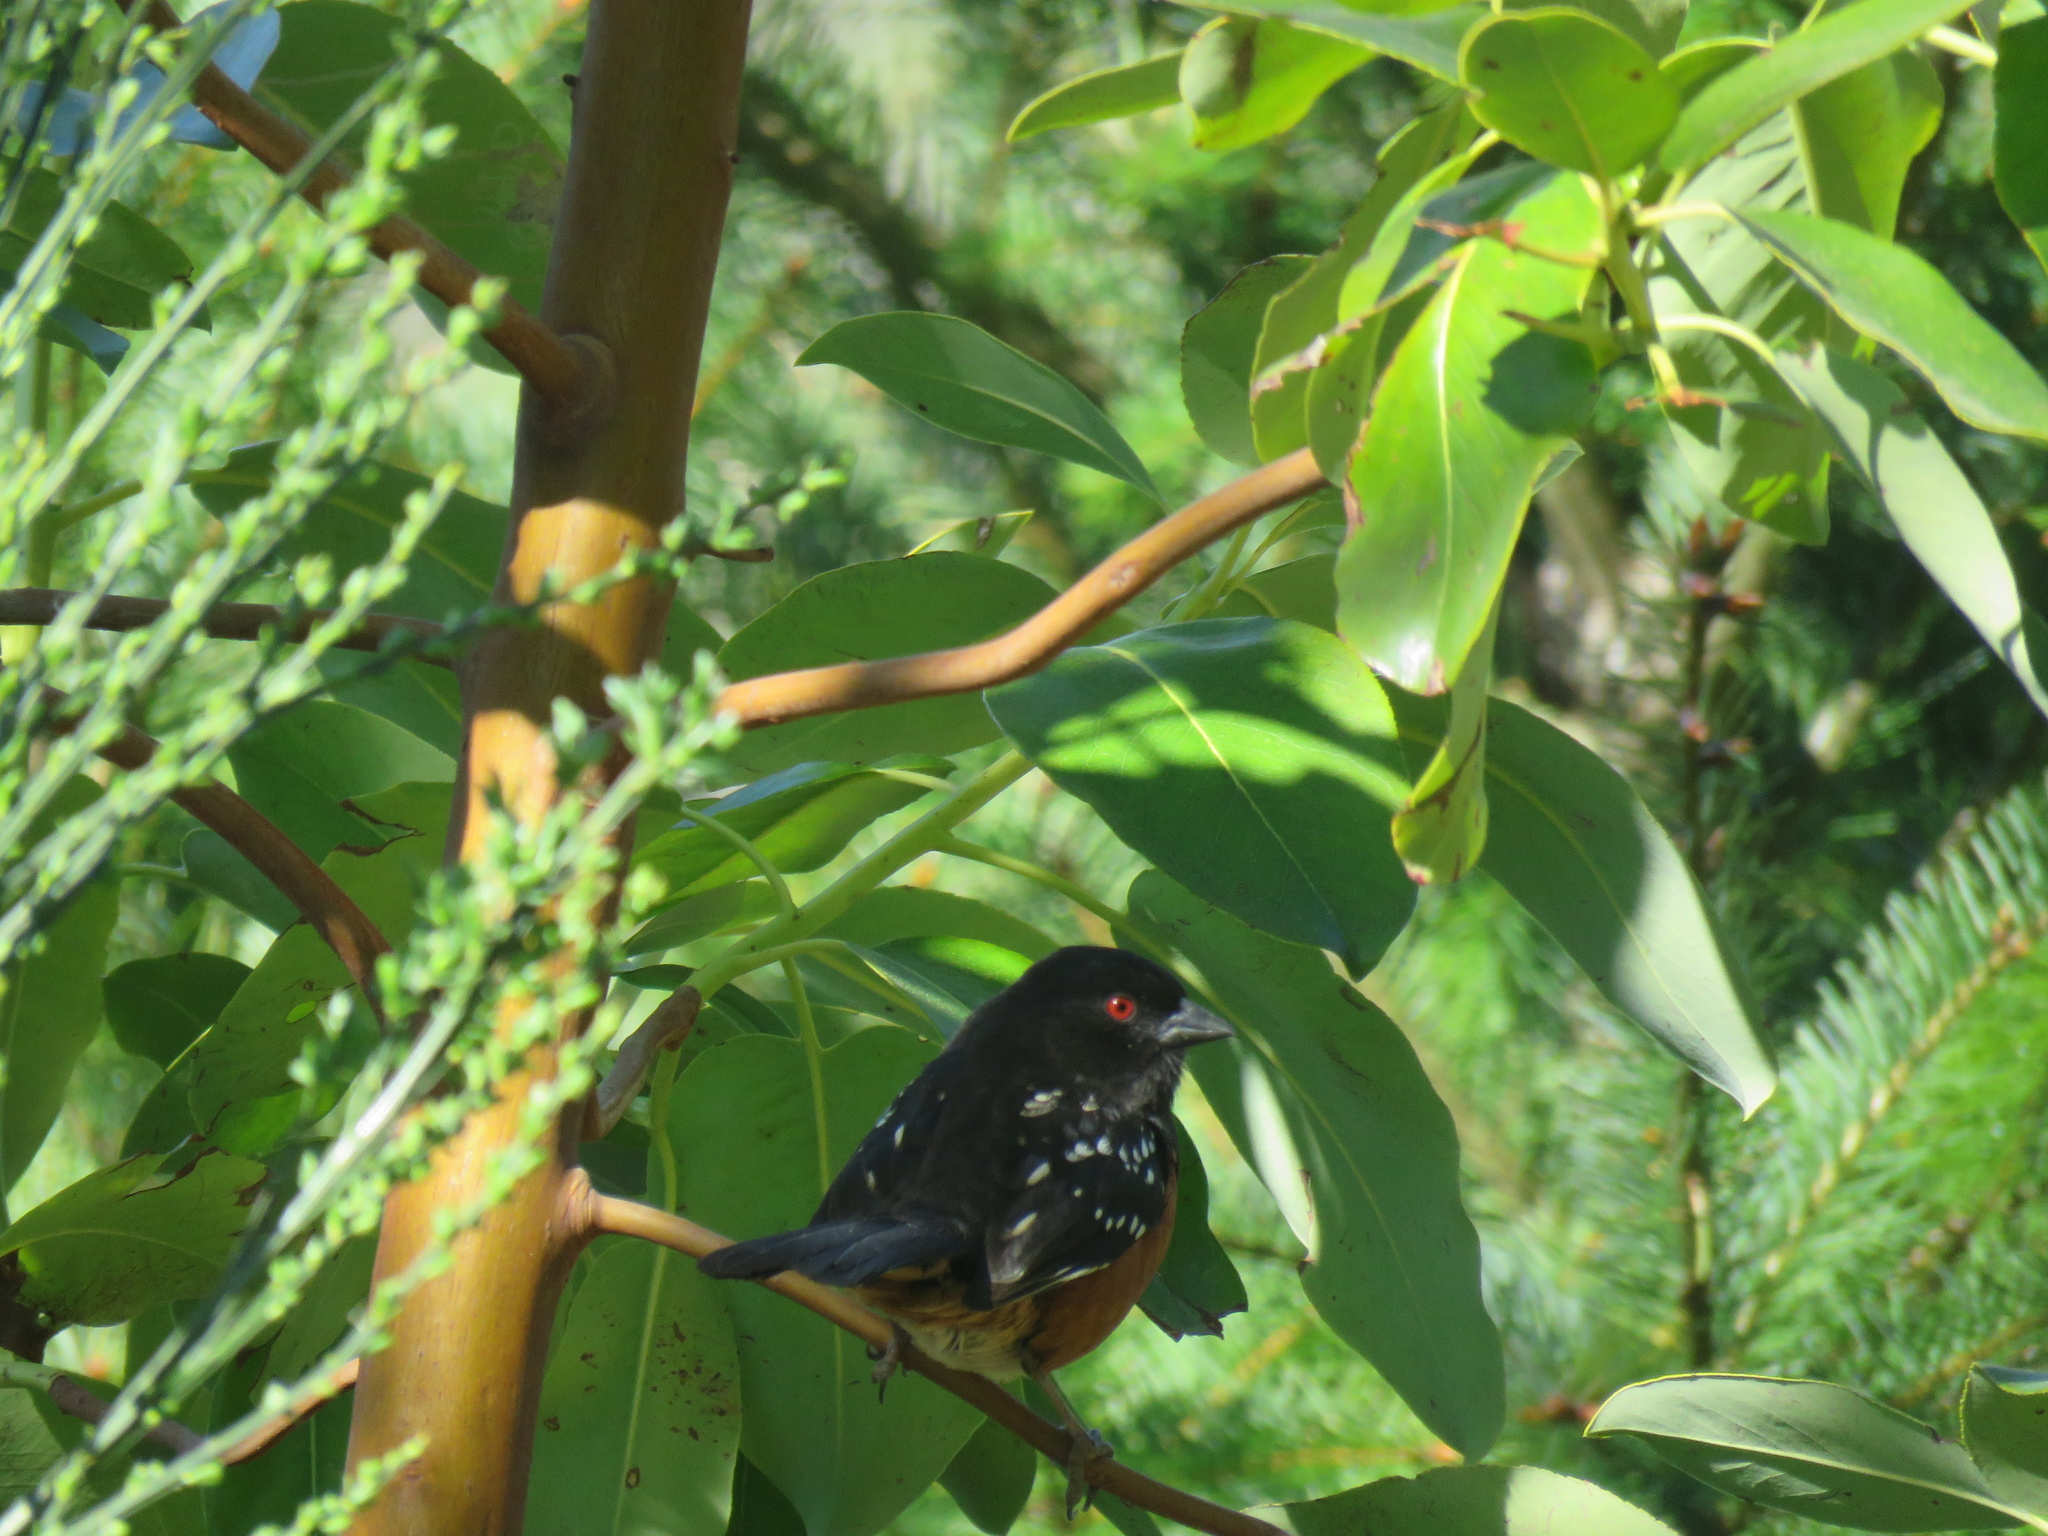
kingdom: Animalia
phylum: Chordata
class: Aves
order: Passeriformes
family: Passerellidae
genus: Pipilo
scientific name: Pipilo maculatus
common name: Spotted towhee
